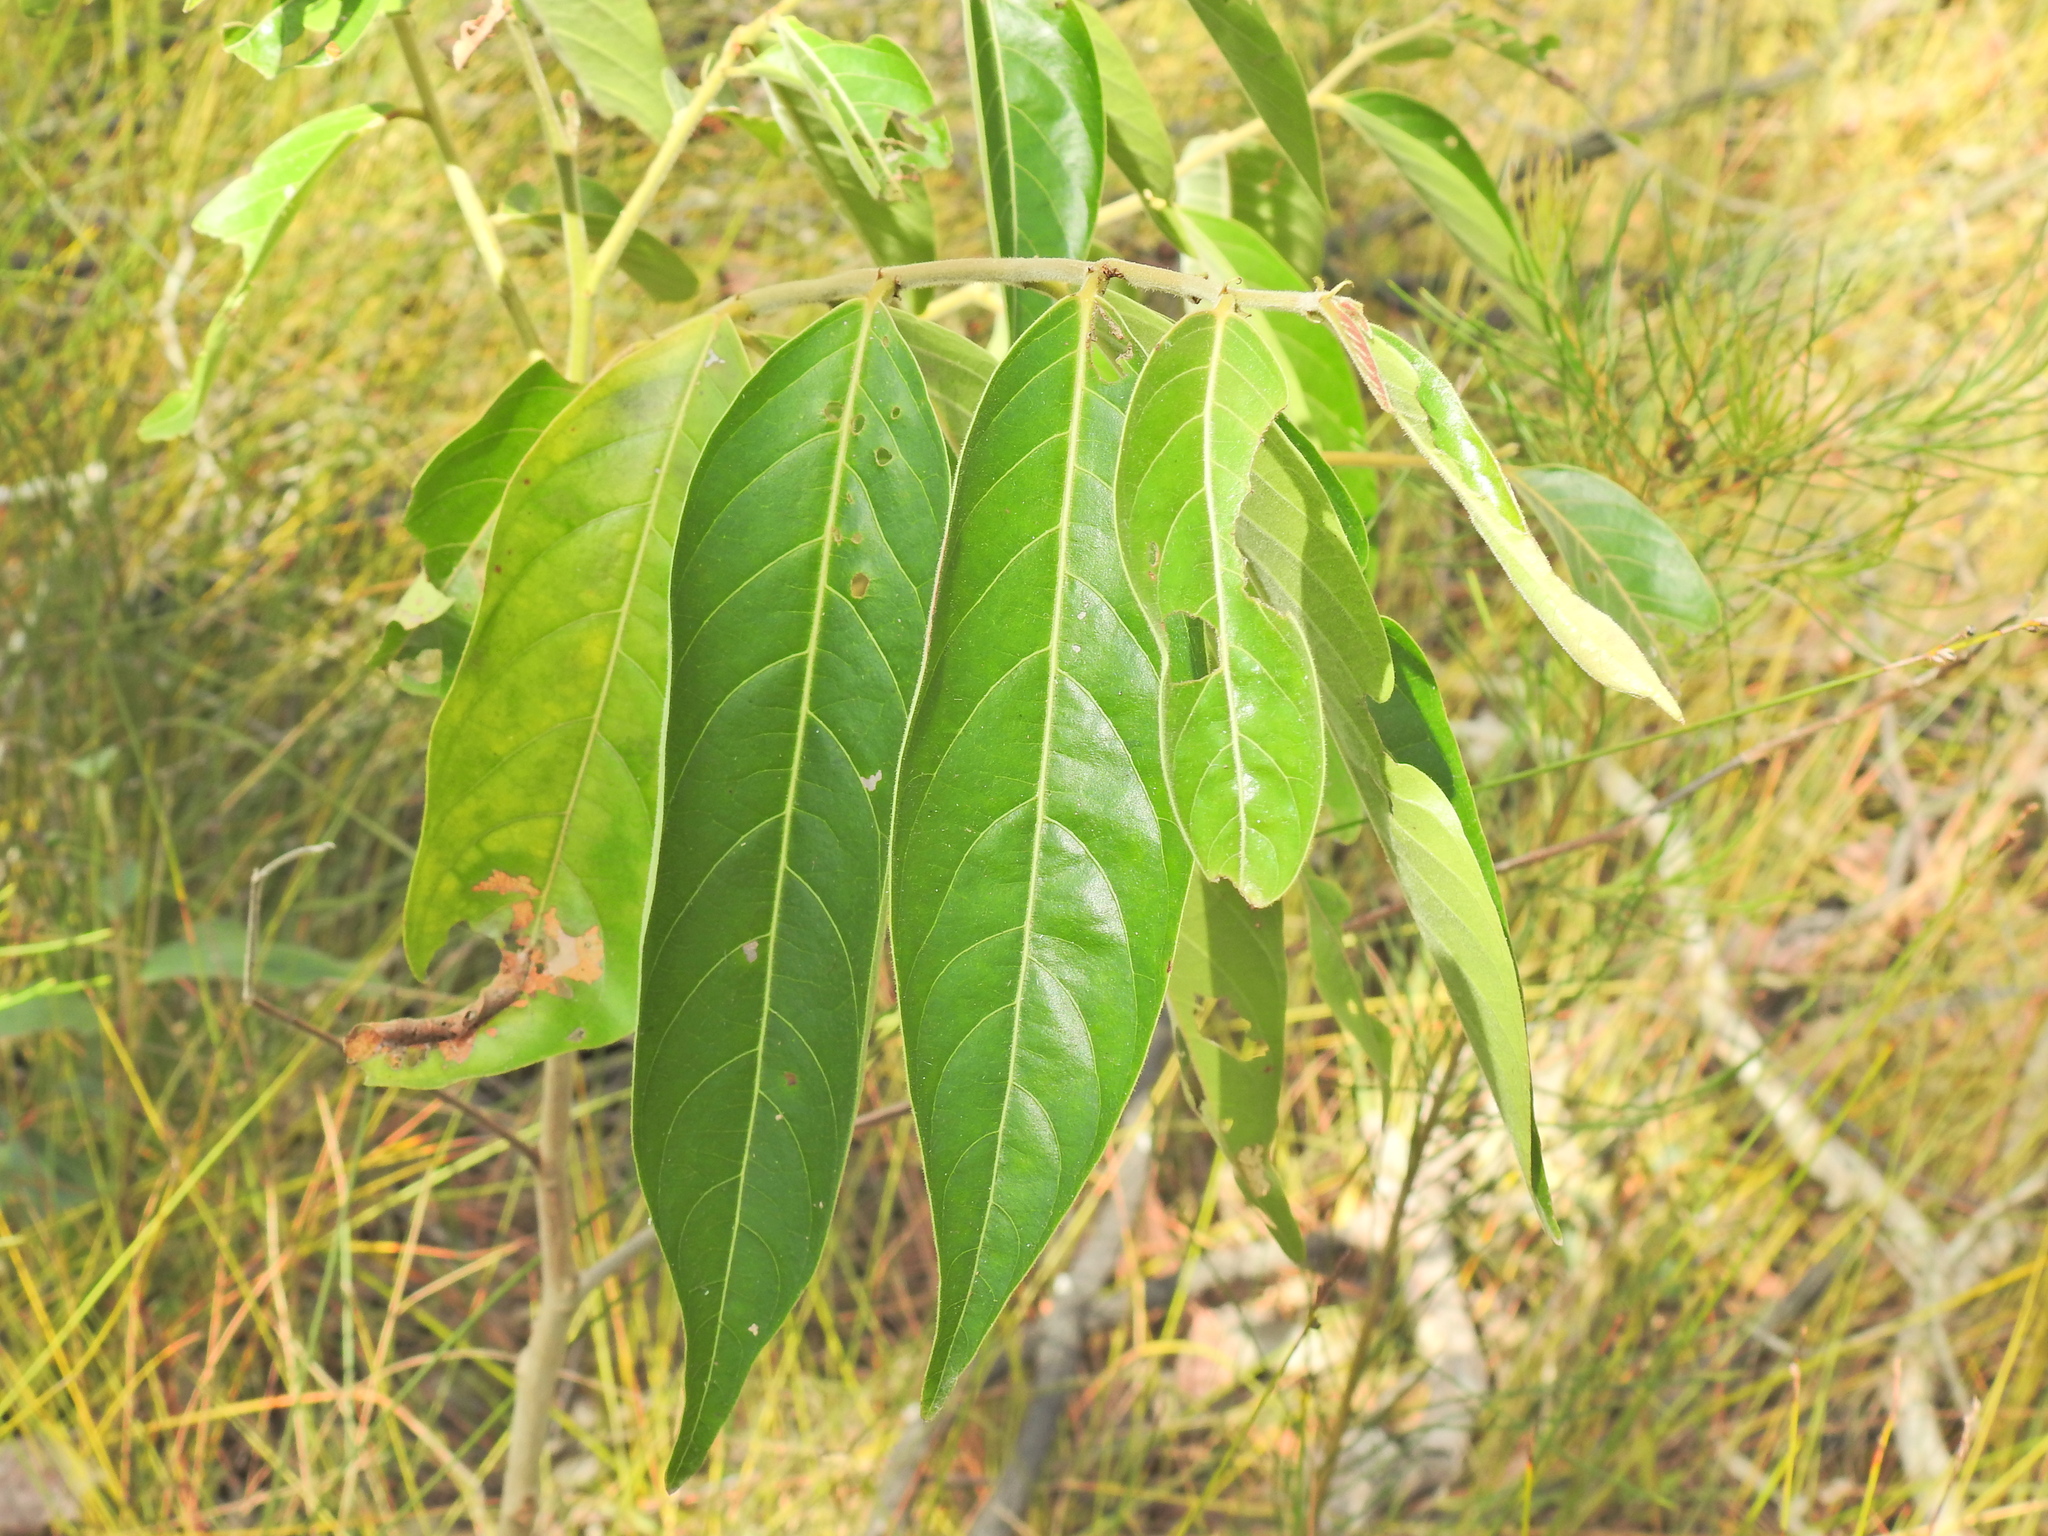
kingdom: Plantae
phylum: Tracheophyta
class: Magnoliopsida
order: Malpighiales
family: Phyllanthaceae
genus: Glochidion
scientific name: Glochidion zeylanicum
